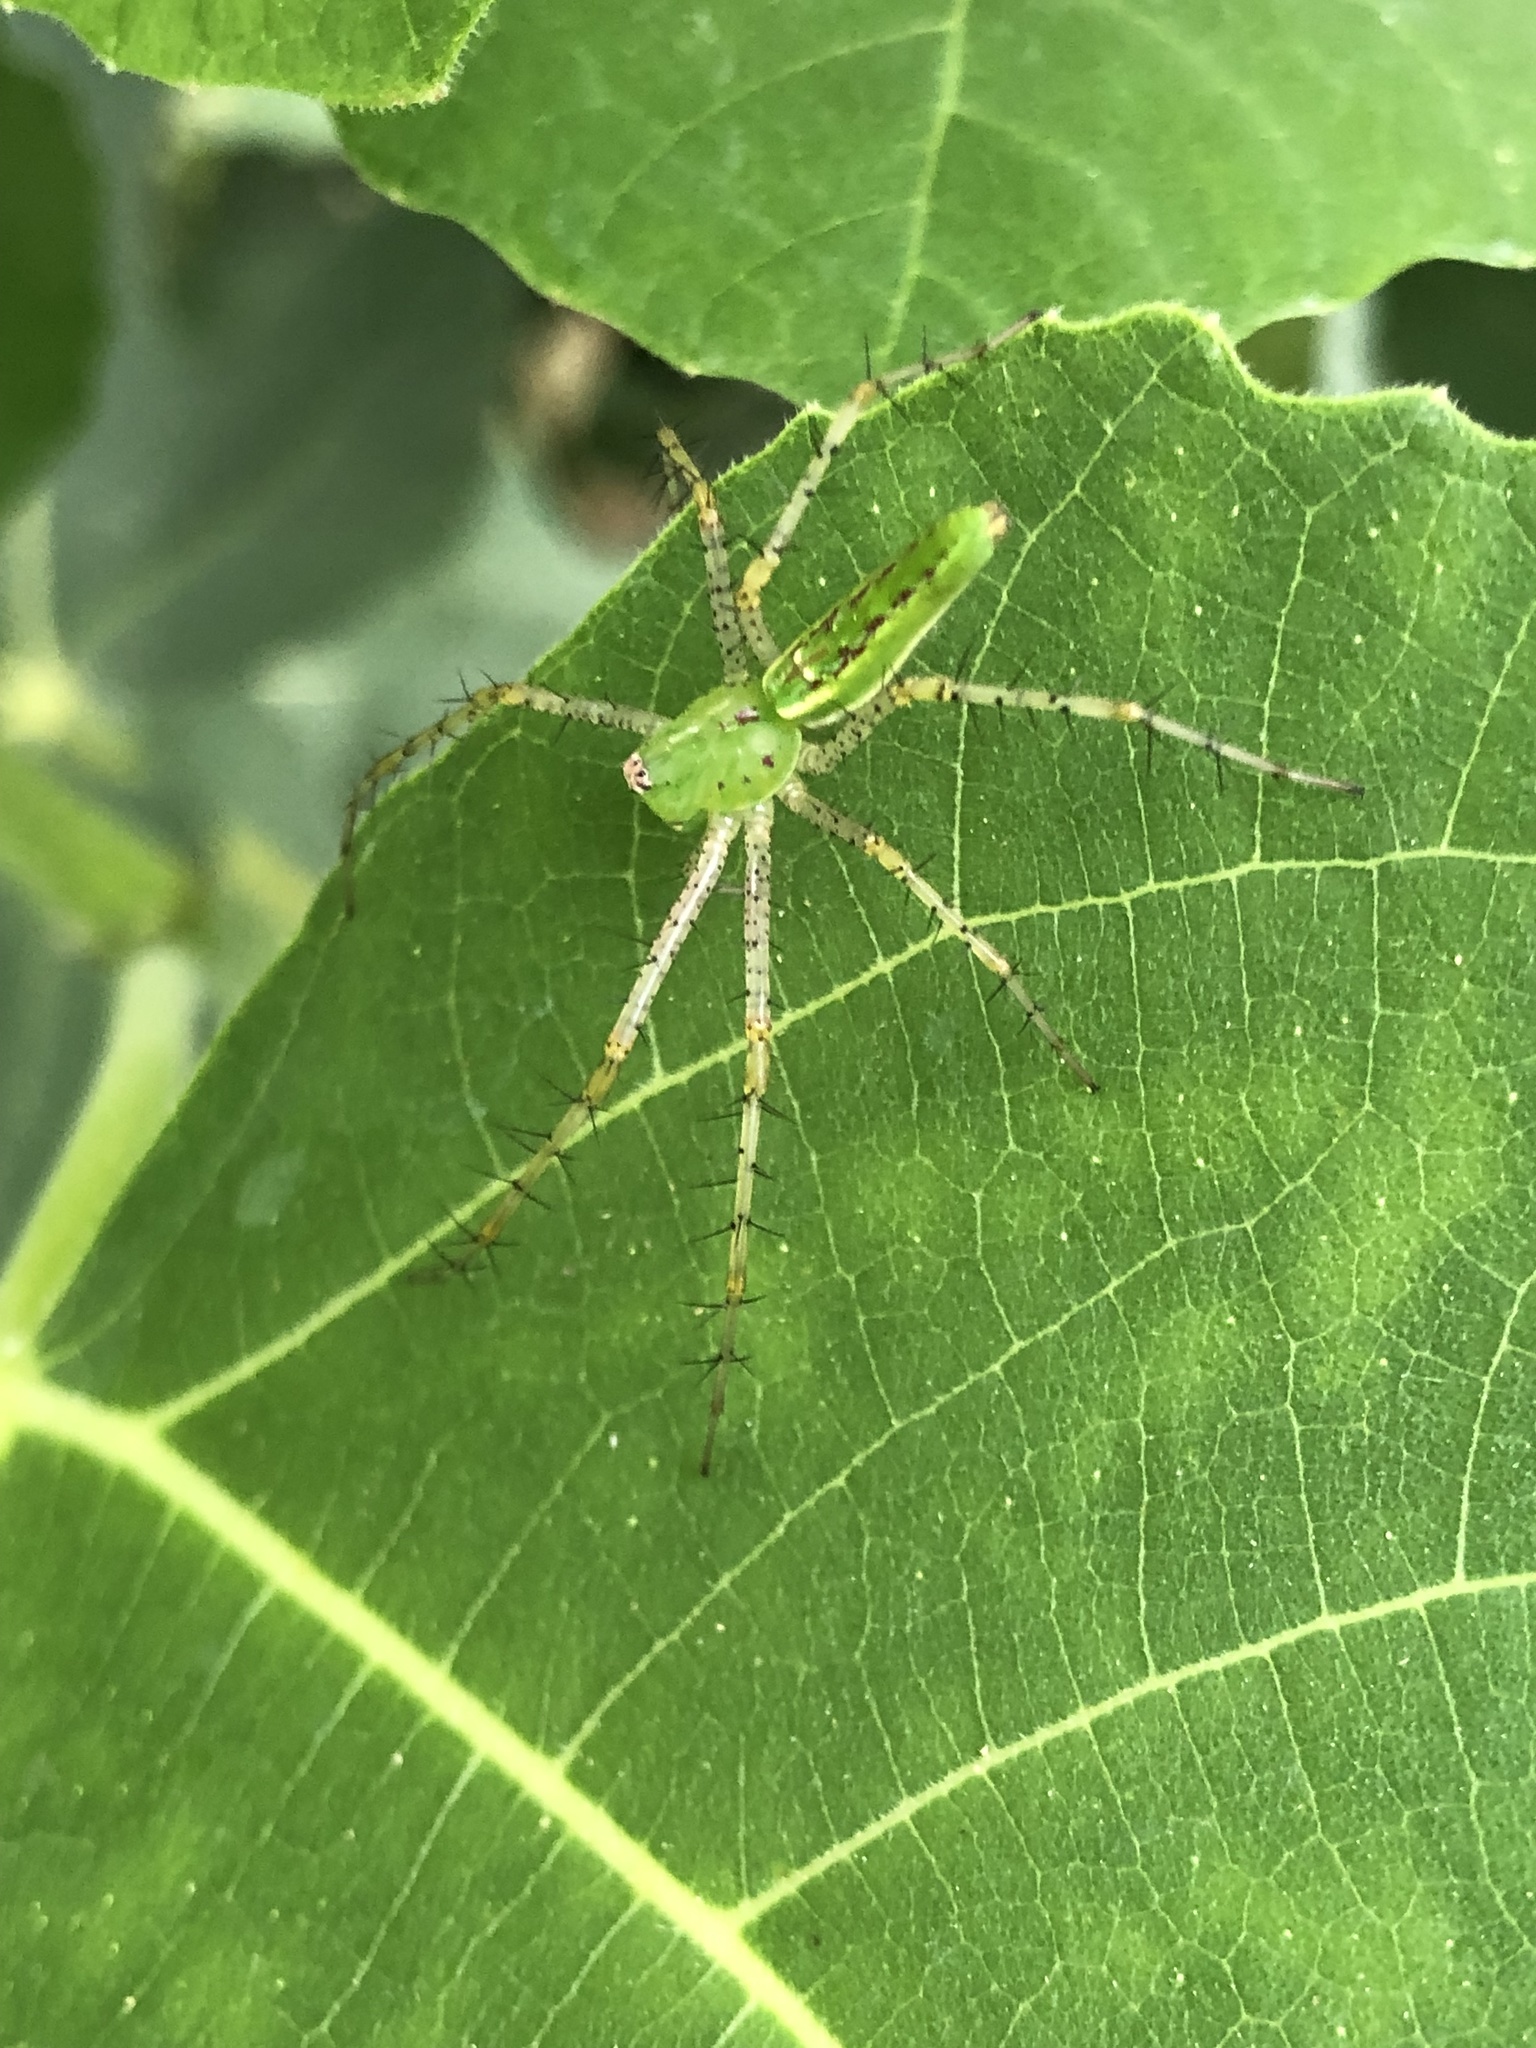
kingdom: Animalia
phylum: Arthropoda
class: Arachnida
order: Araneae
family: Oxyopidae
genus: Peucetia
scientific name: Peucetia viridans
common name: Lynx spiders
